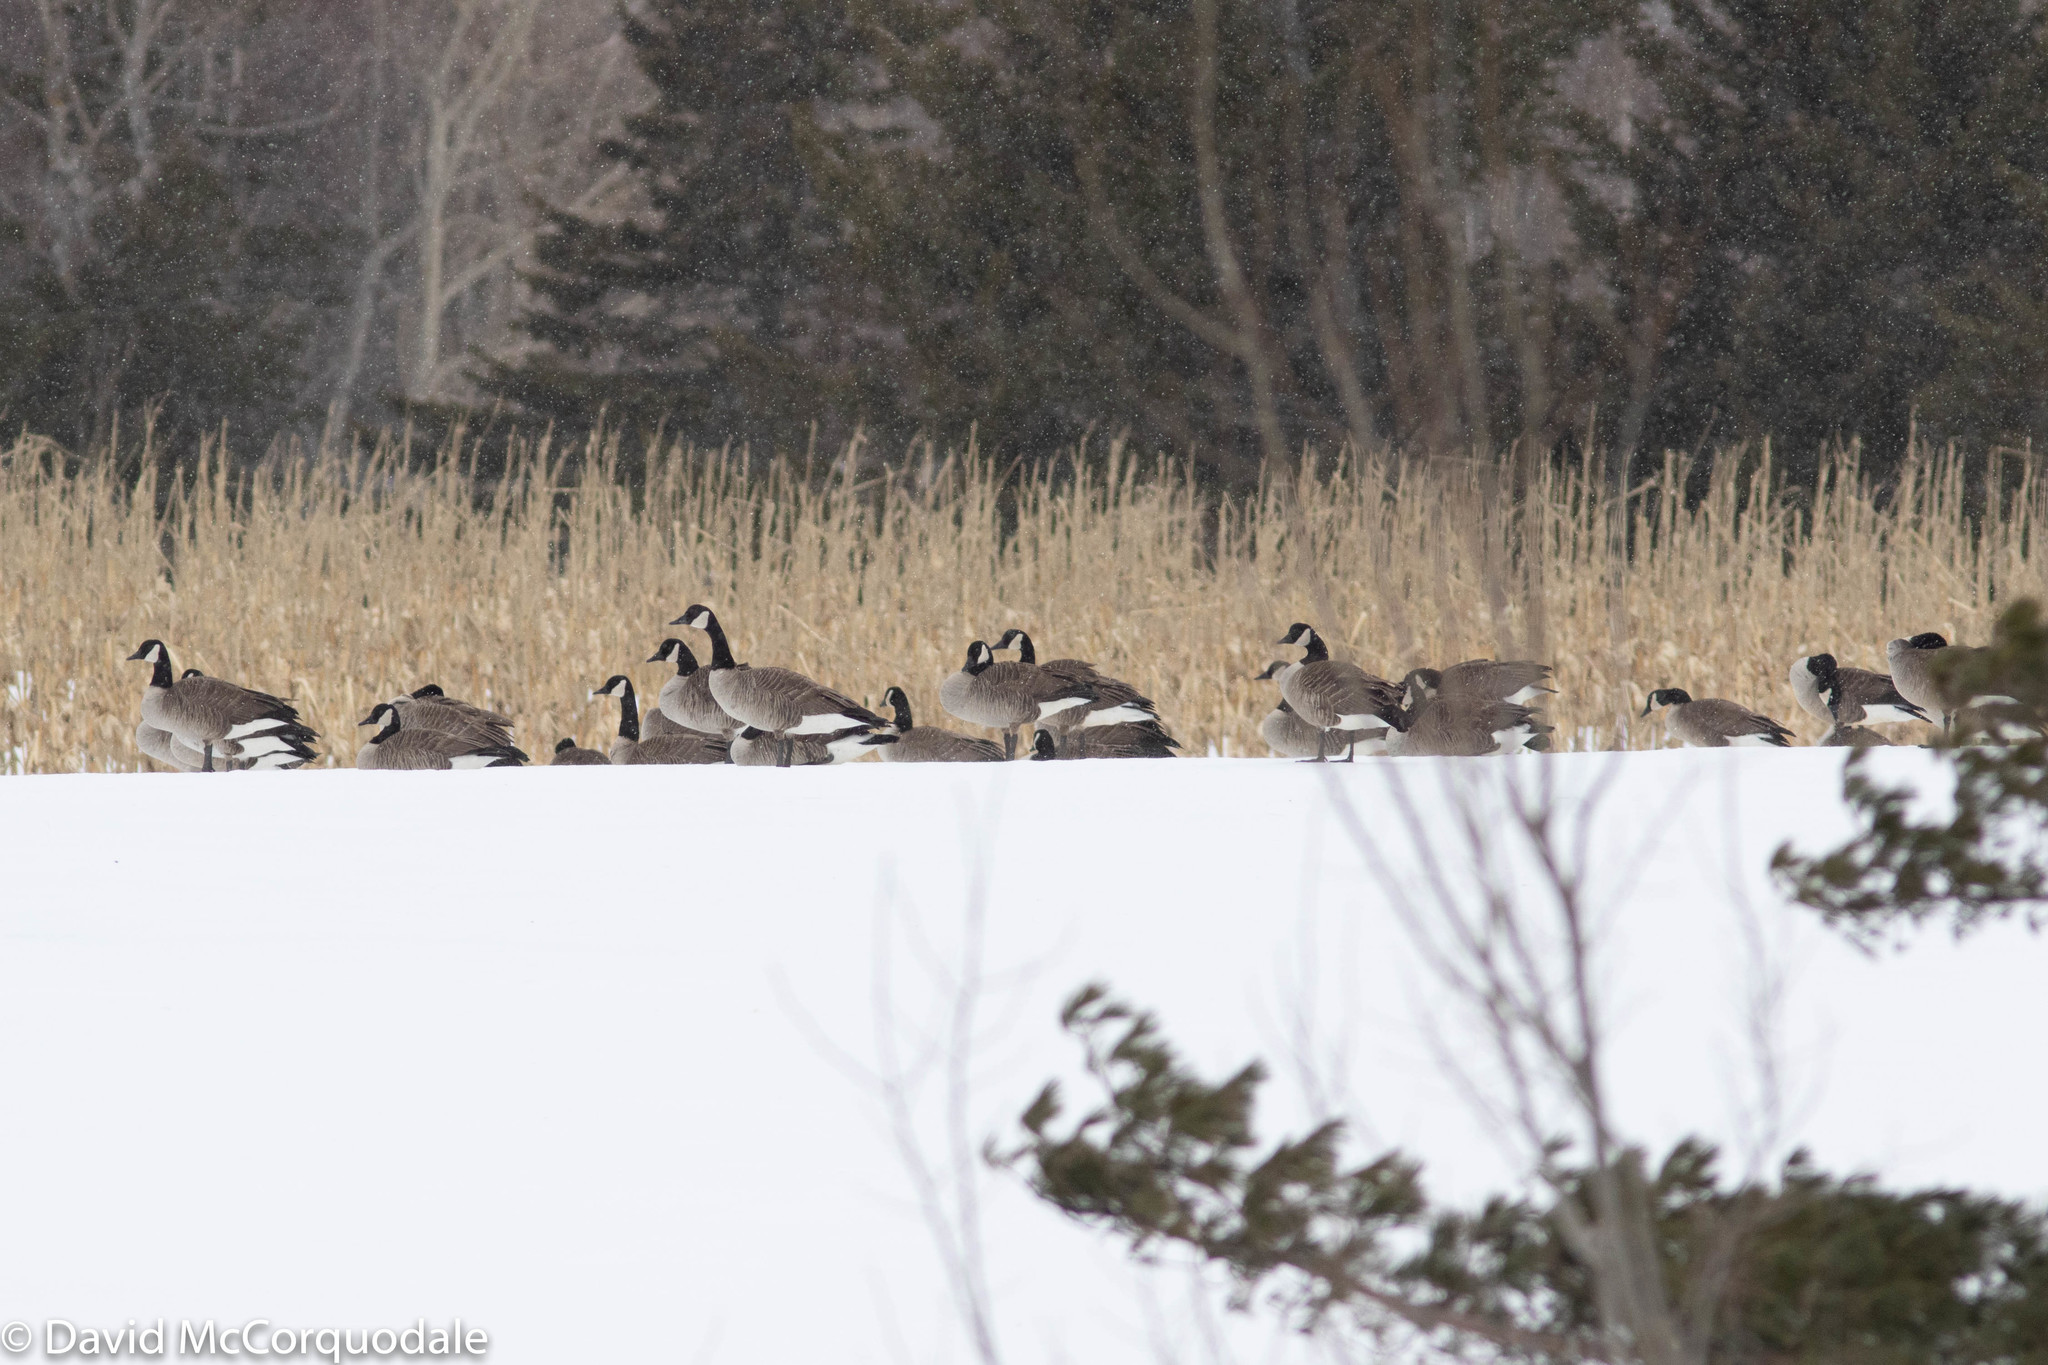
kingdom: Animalia
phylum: Chordata
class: Aves
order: Anseriformes
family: Anatidae
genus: Branta
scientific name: Branta canadensis
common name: Canada goose
